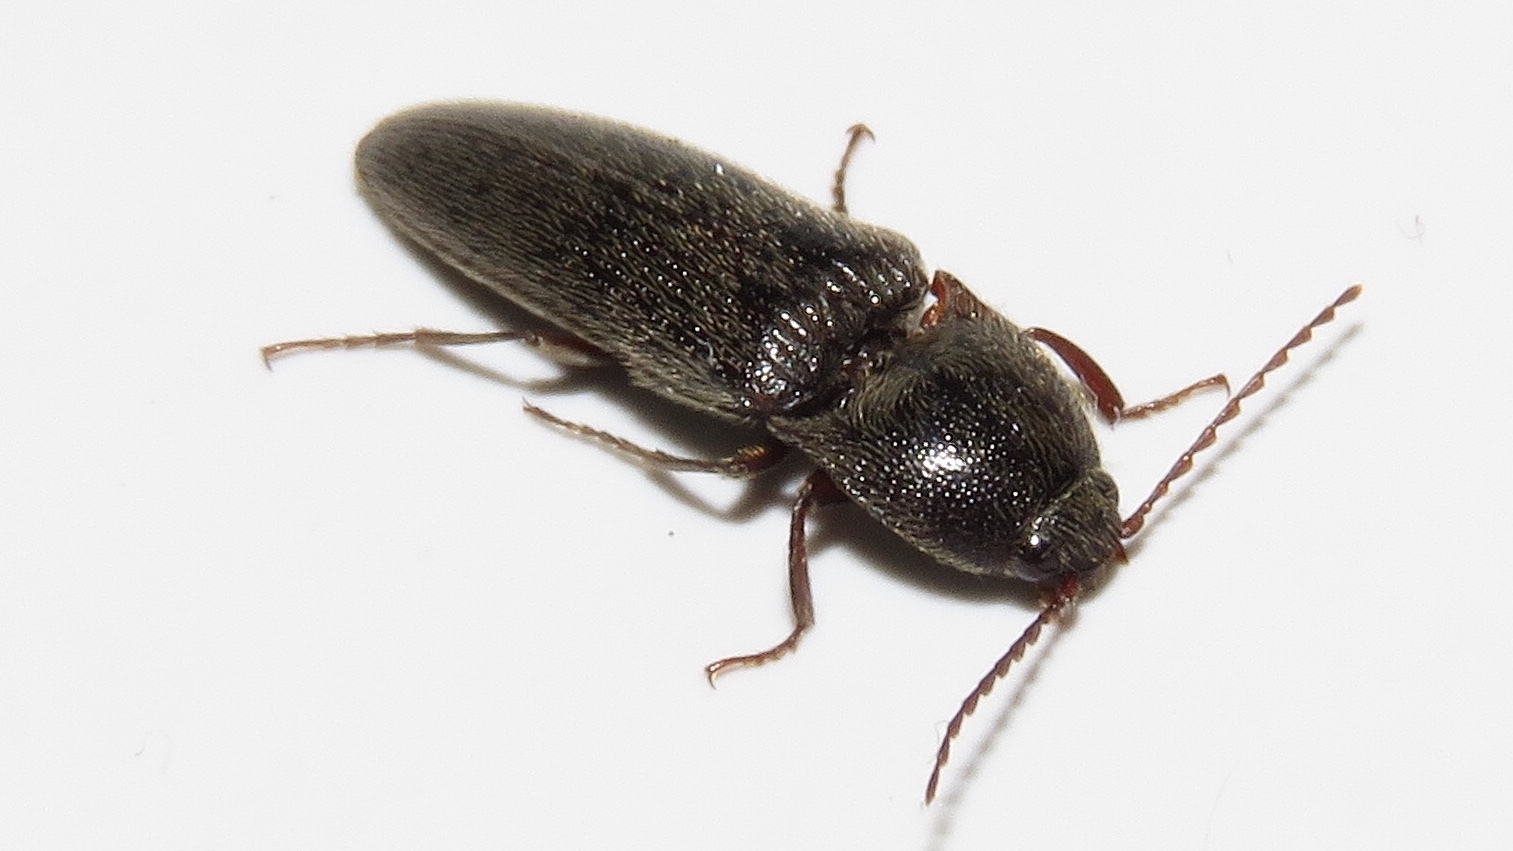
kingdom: Animalia
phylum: Arthropoda
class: Insecta
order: Coleoptera
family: Elateridae
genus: Elater
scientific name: Elater abruptus
